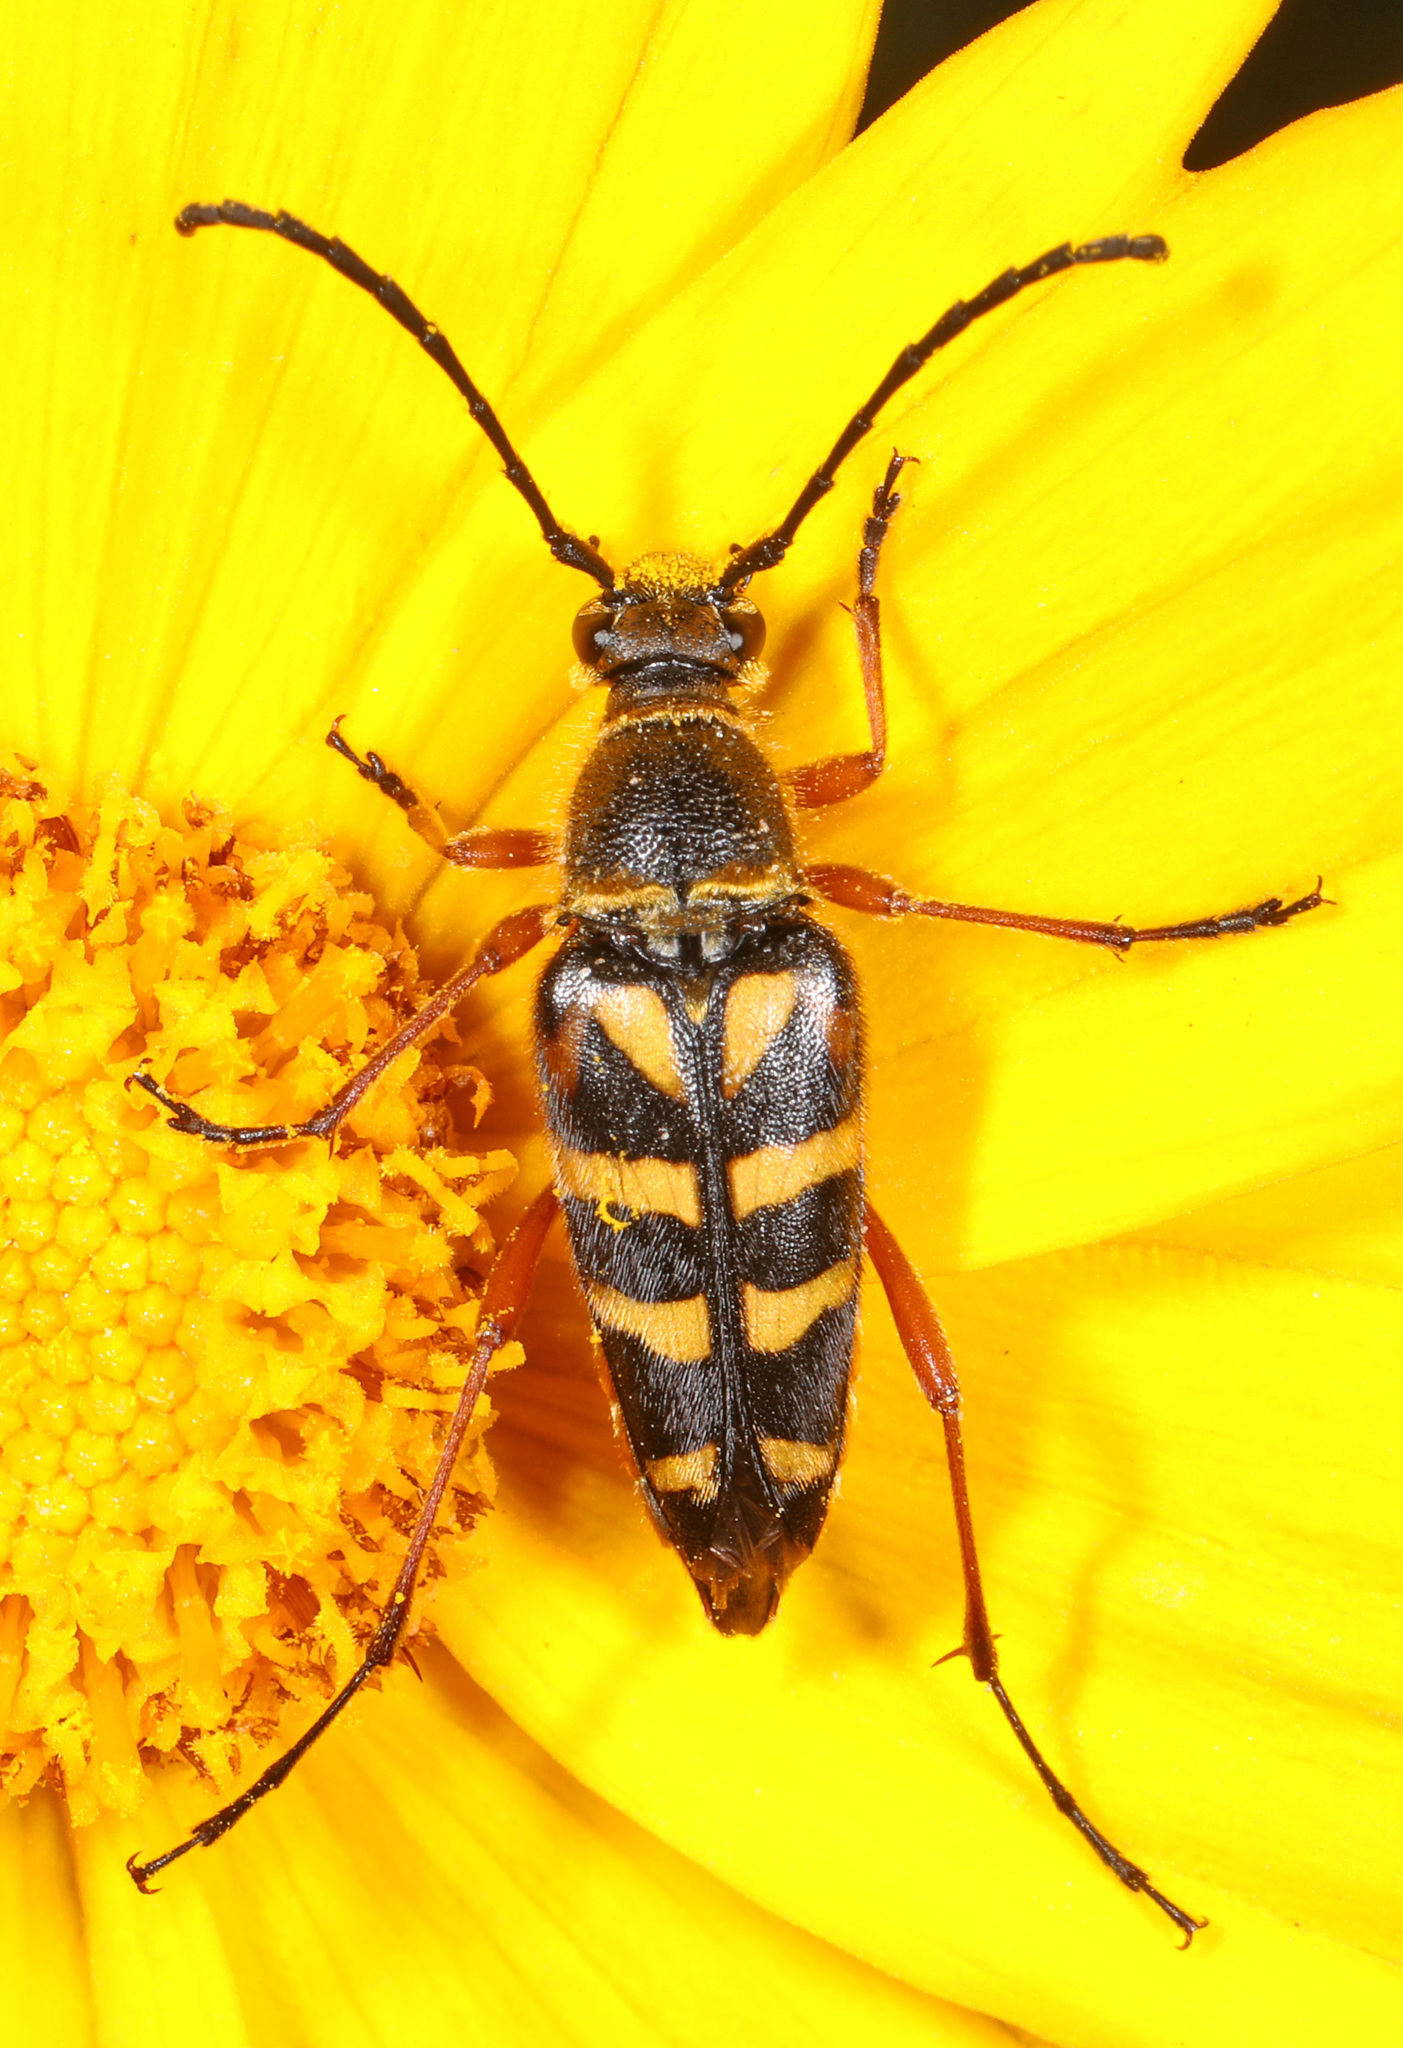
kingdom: Animalia
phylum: Arthropoda
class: Insecta
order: Coleoptera
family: Cerambycidae
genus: Typocerus
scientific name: Typocerus zebra
